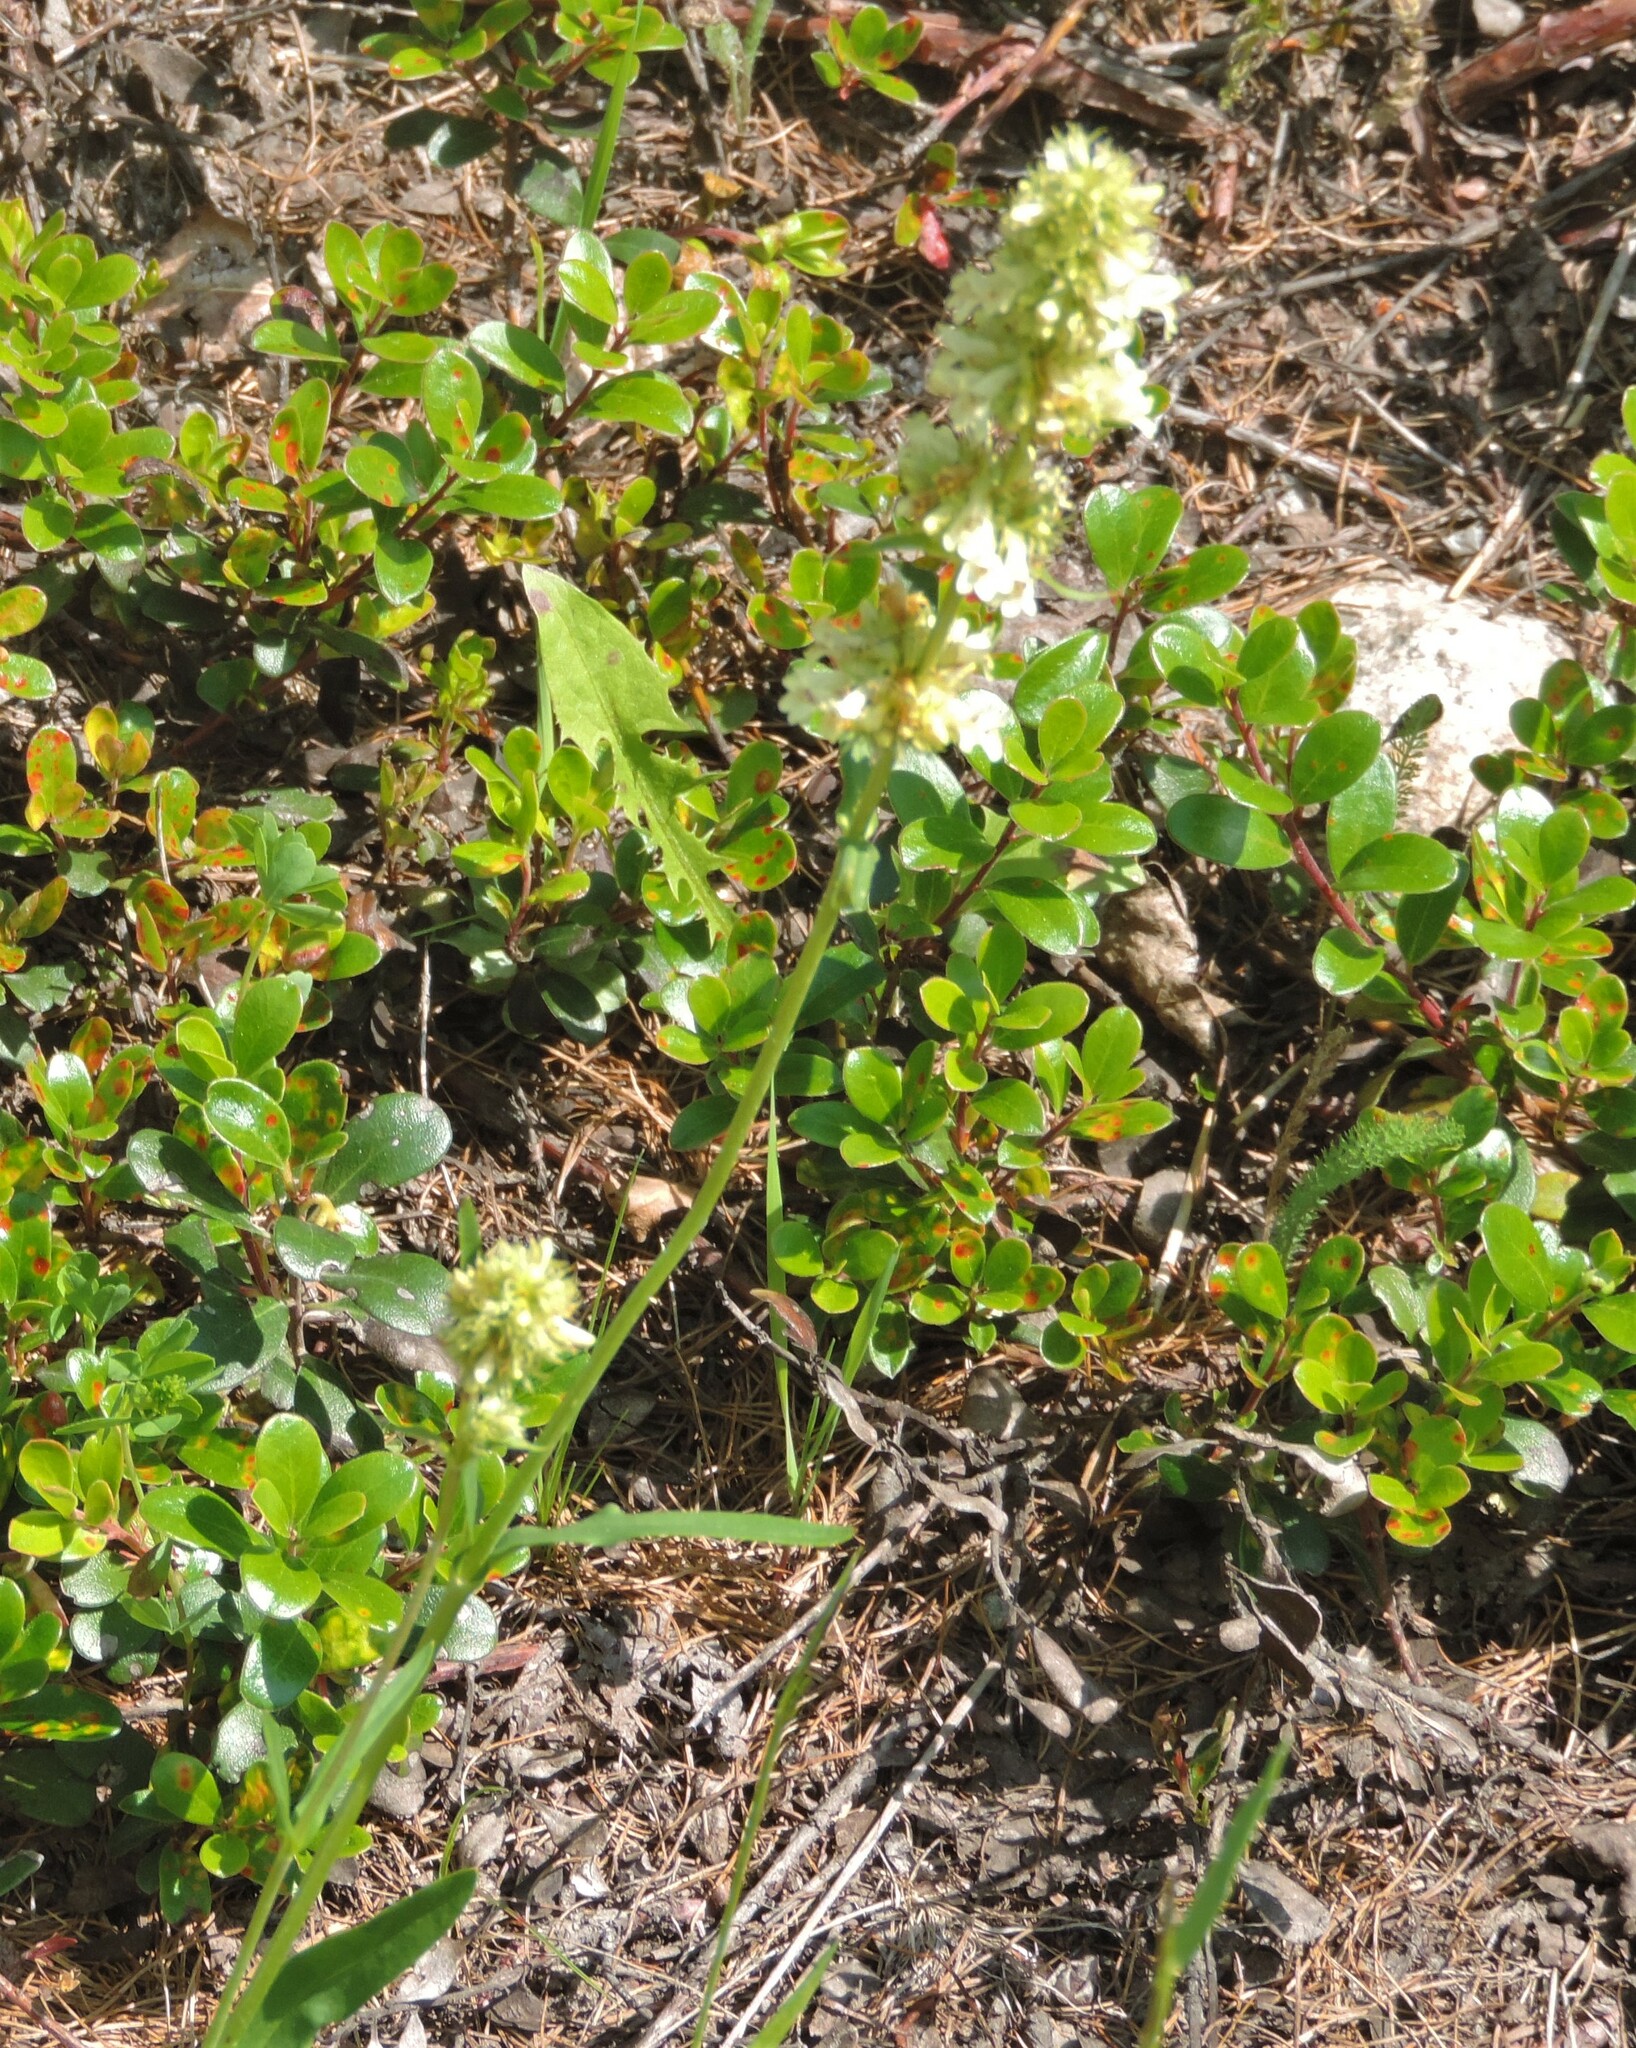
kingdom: Plantae
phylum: Tracheophyta
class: Magnoliopsida
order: Lamiales
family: Plantaginaceae
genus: Penstemon
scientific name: Penstemon confertus
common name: Lesser yellow beardtongue
